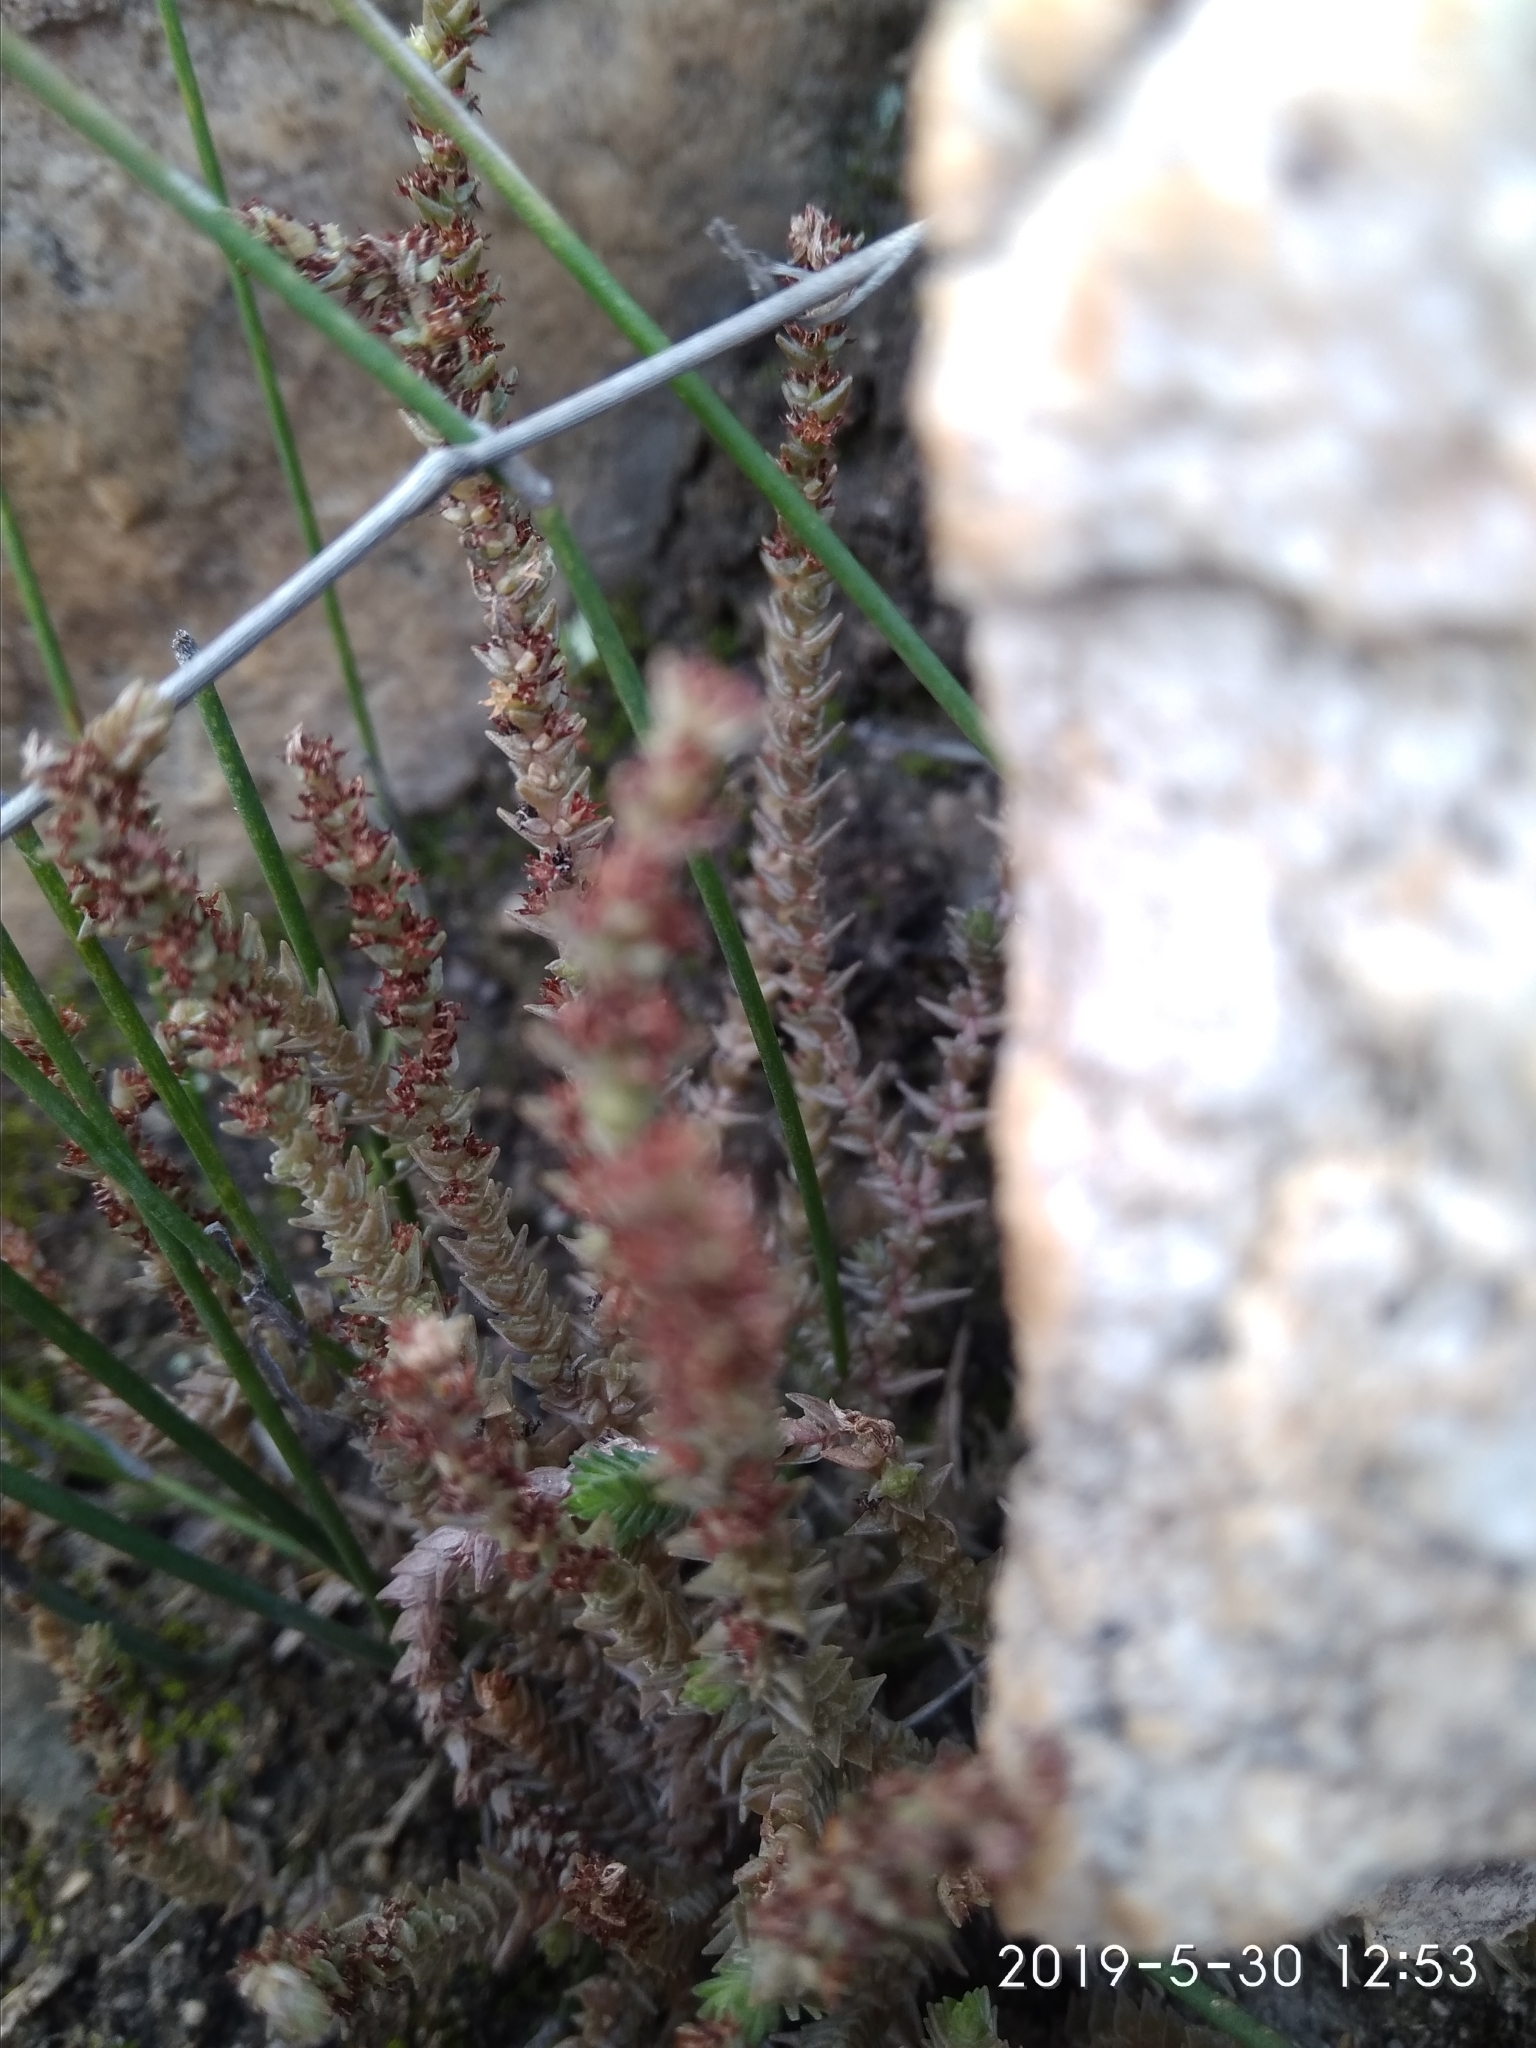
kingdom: Plantae
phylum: Tracheophyta
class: Magnoliopsida
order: Saxifragales
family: Crassulaceae
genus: Crassula
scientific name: Crassula muscosa
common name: Toy-cypress
